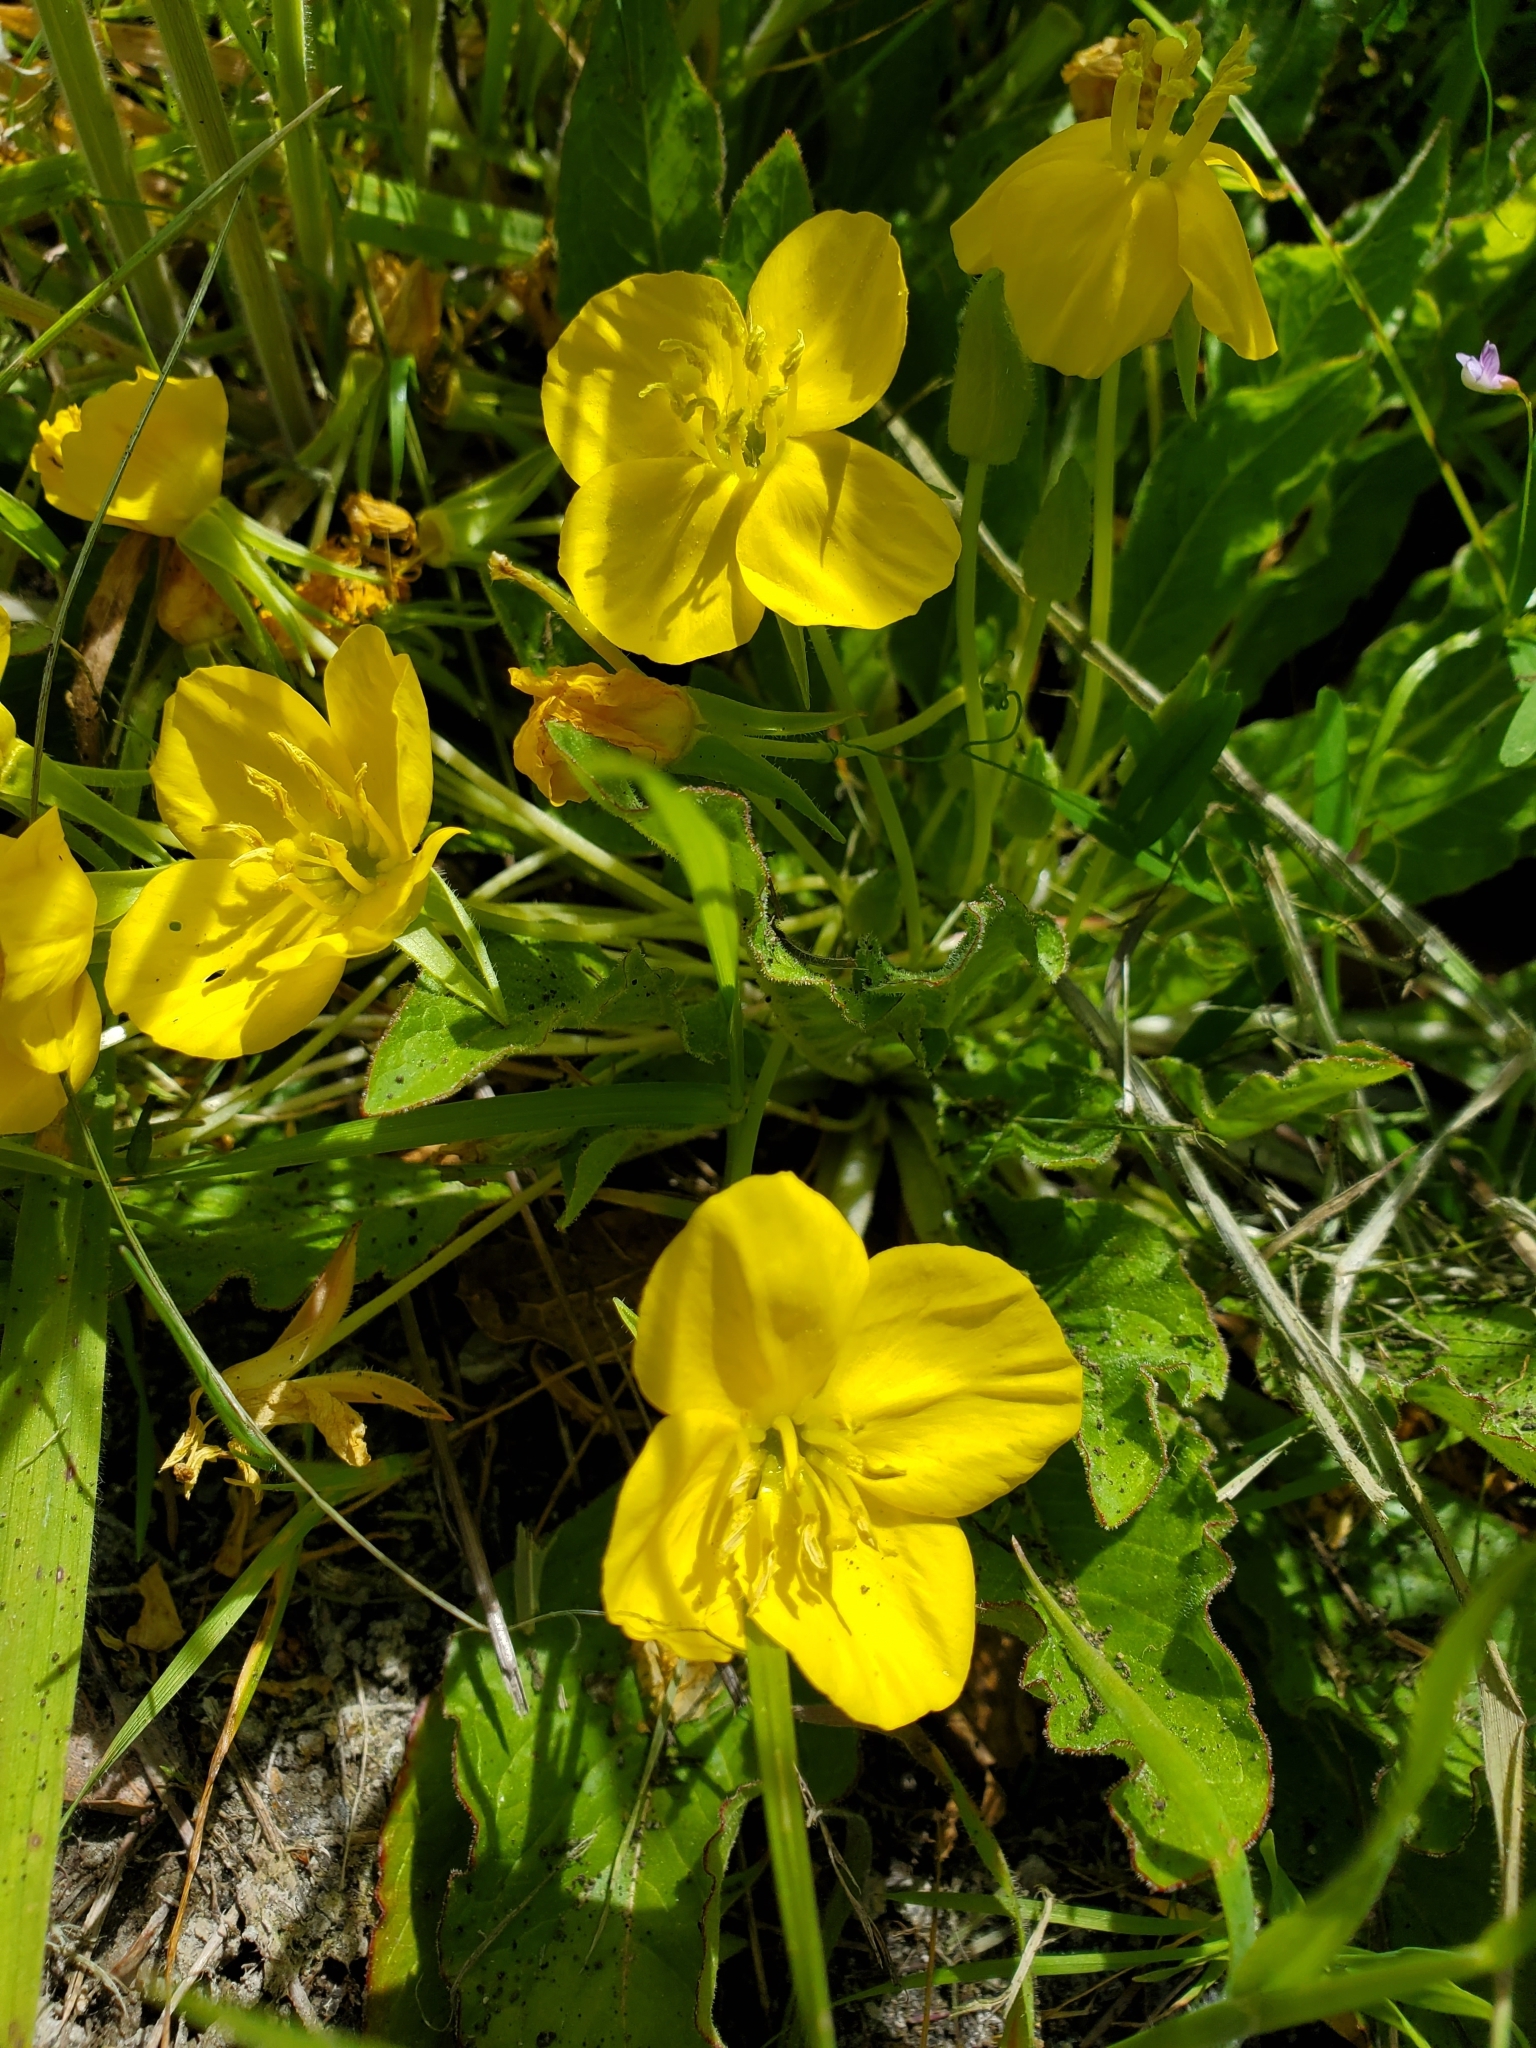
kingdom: Plantae
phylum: Tracheophyta
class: Magnoliopsida
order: Myrtales
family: Onagraceae
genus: Taraxia
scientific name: Taraxia ovata
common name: Goldeneggs
